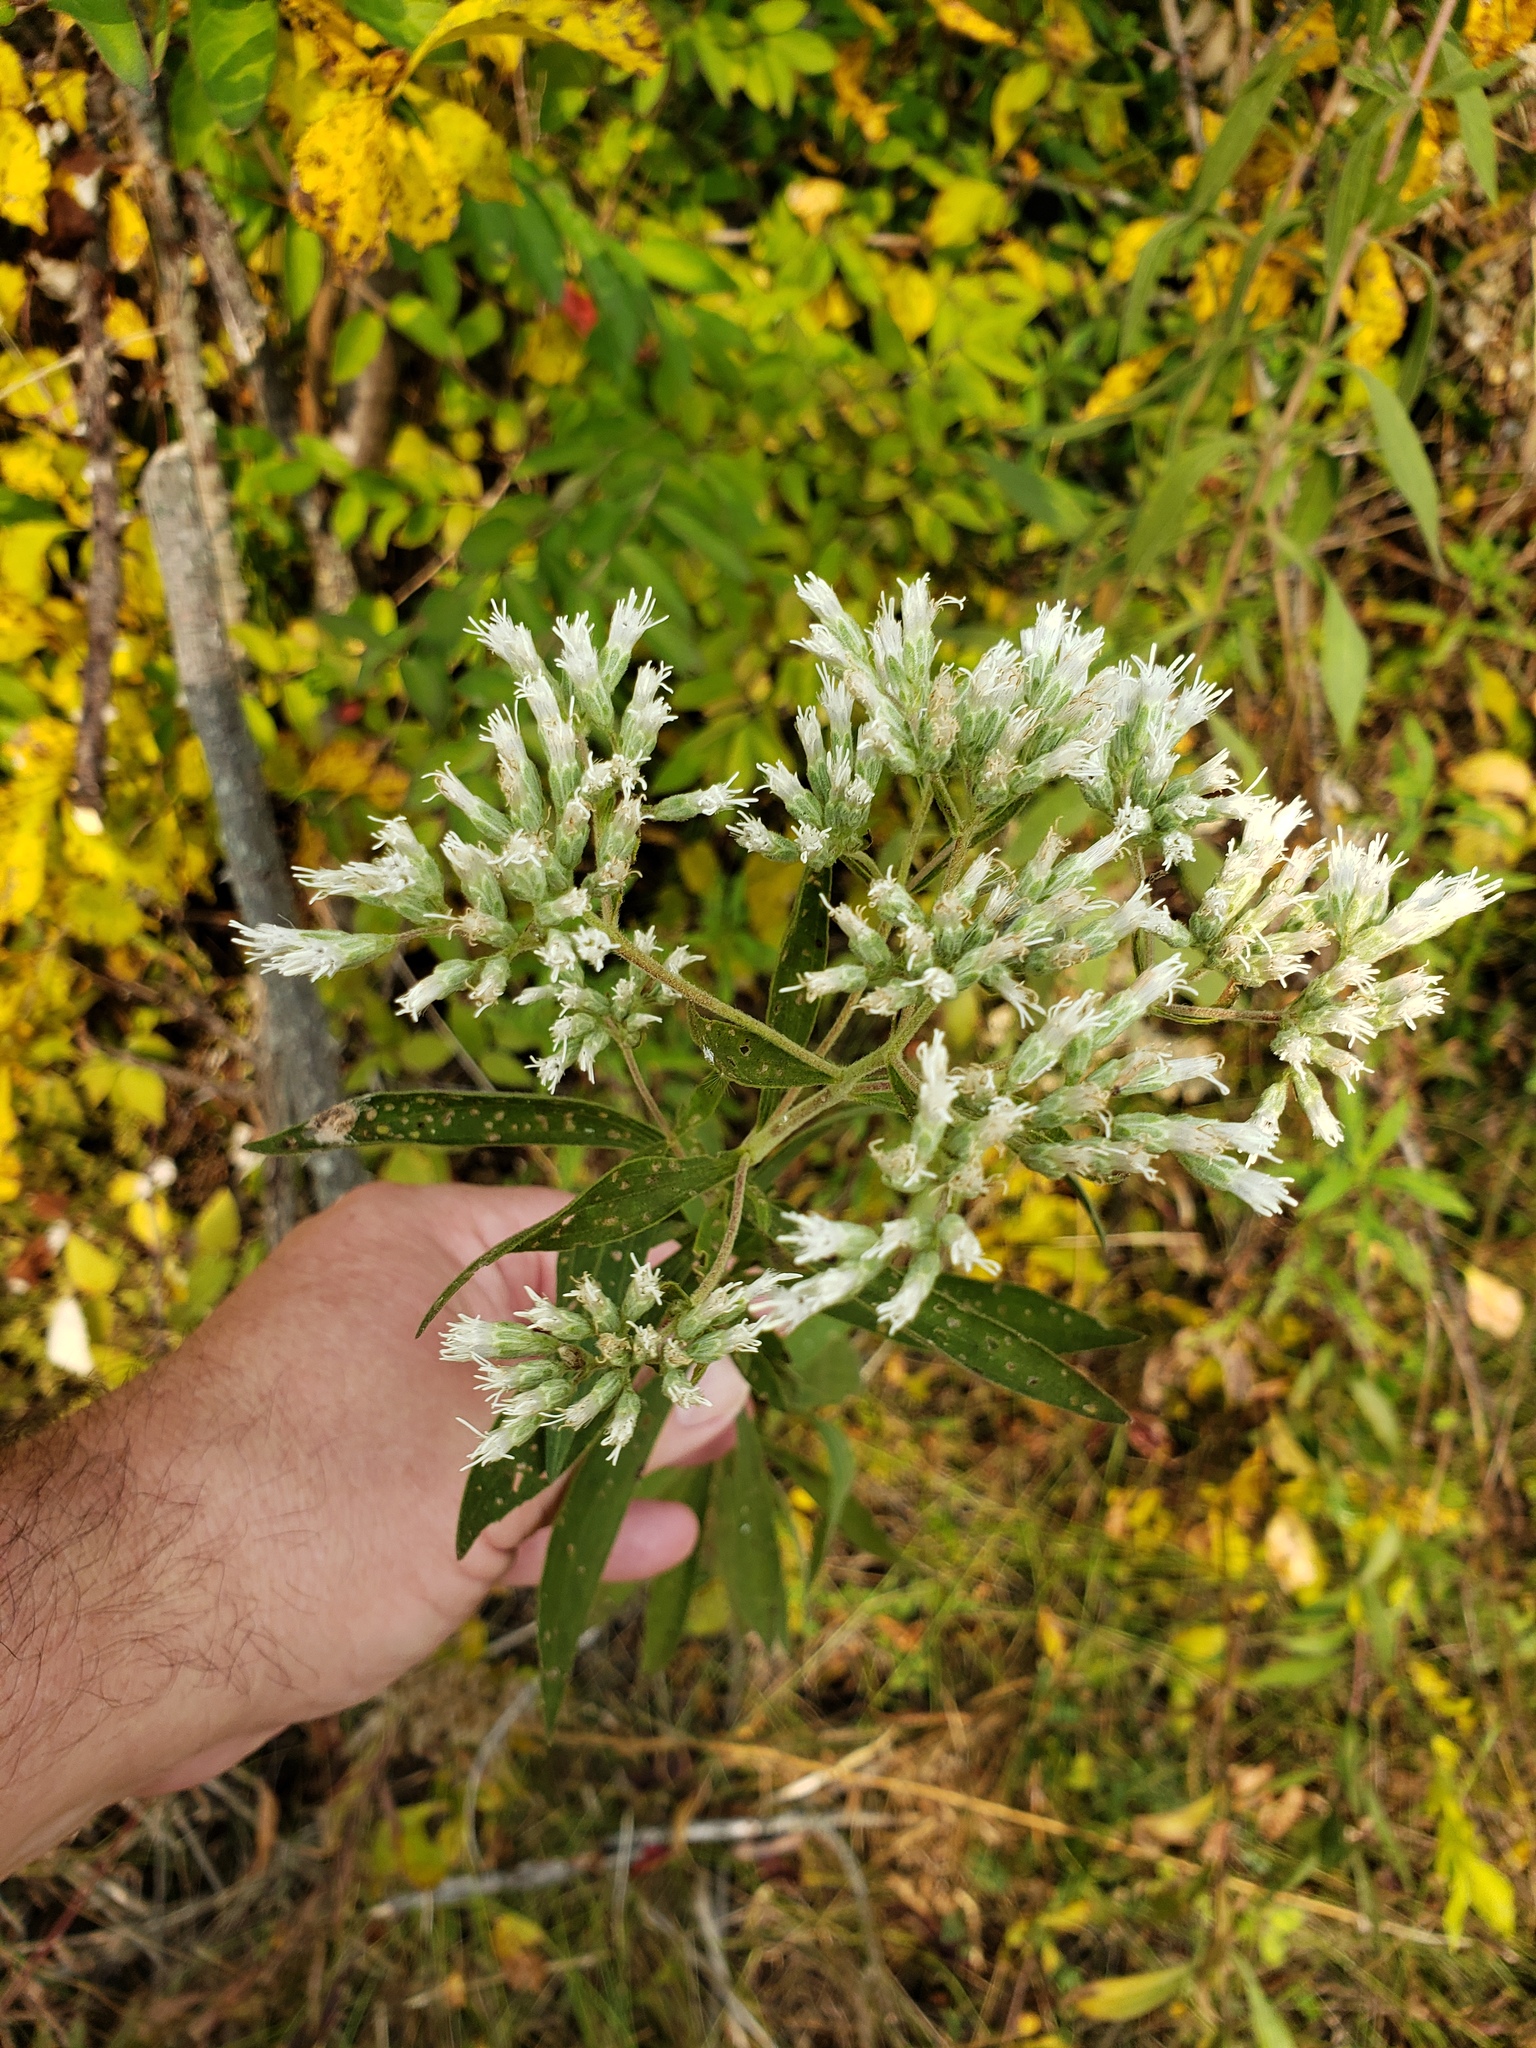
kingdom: Plantae
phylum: Tracheophyta
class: Magnoliopsida
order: Asterales
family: Asteraceae
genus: Eupatorium
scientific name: Eupatorium altissimum
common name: Tall thoroughwort
